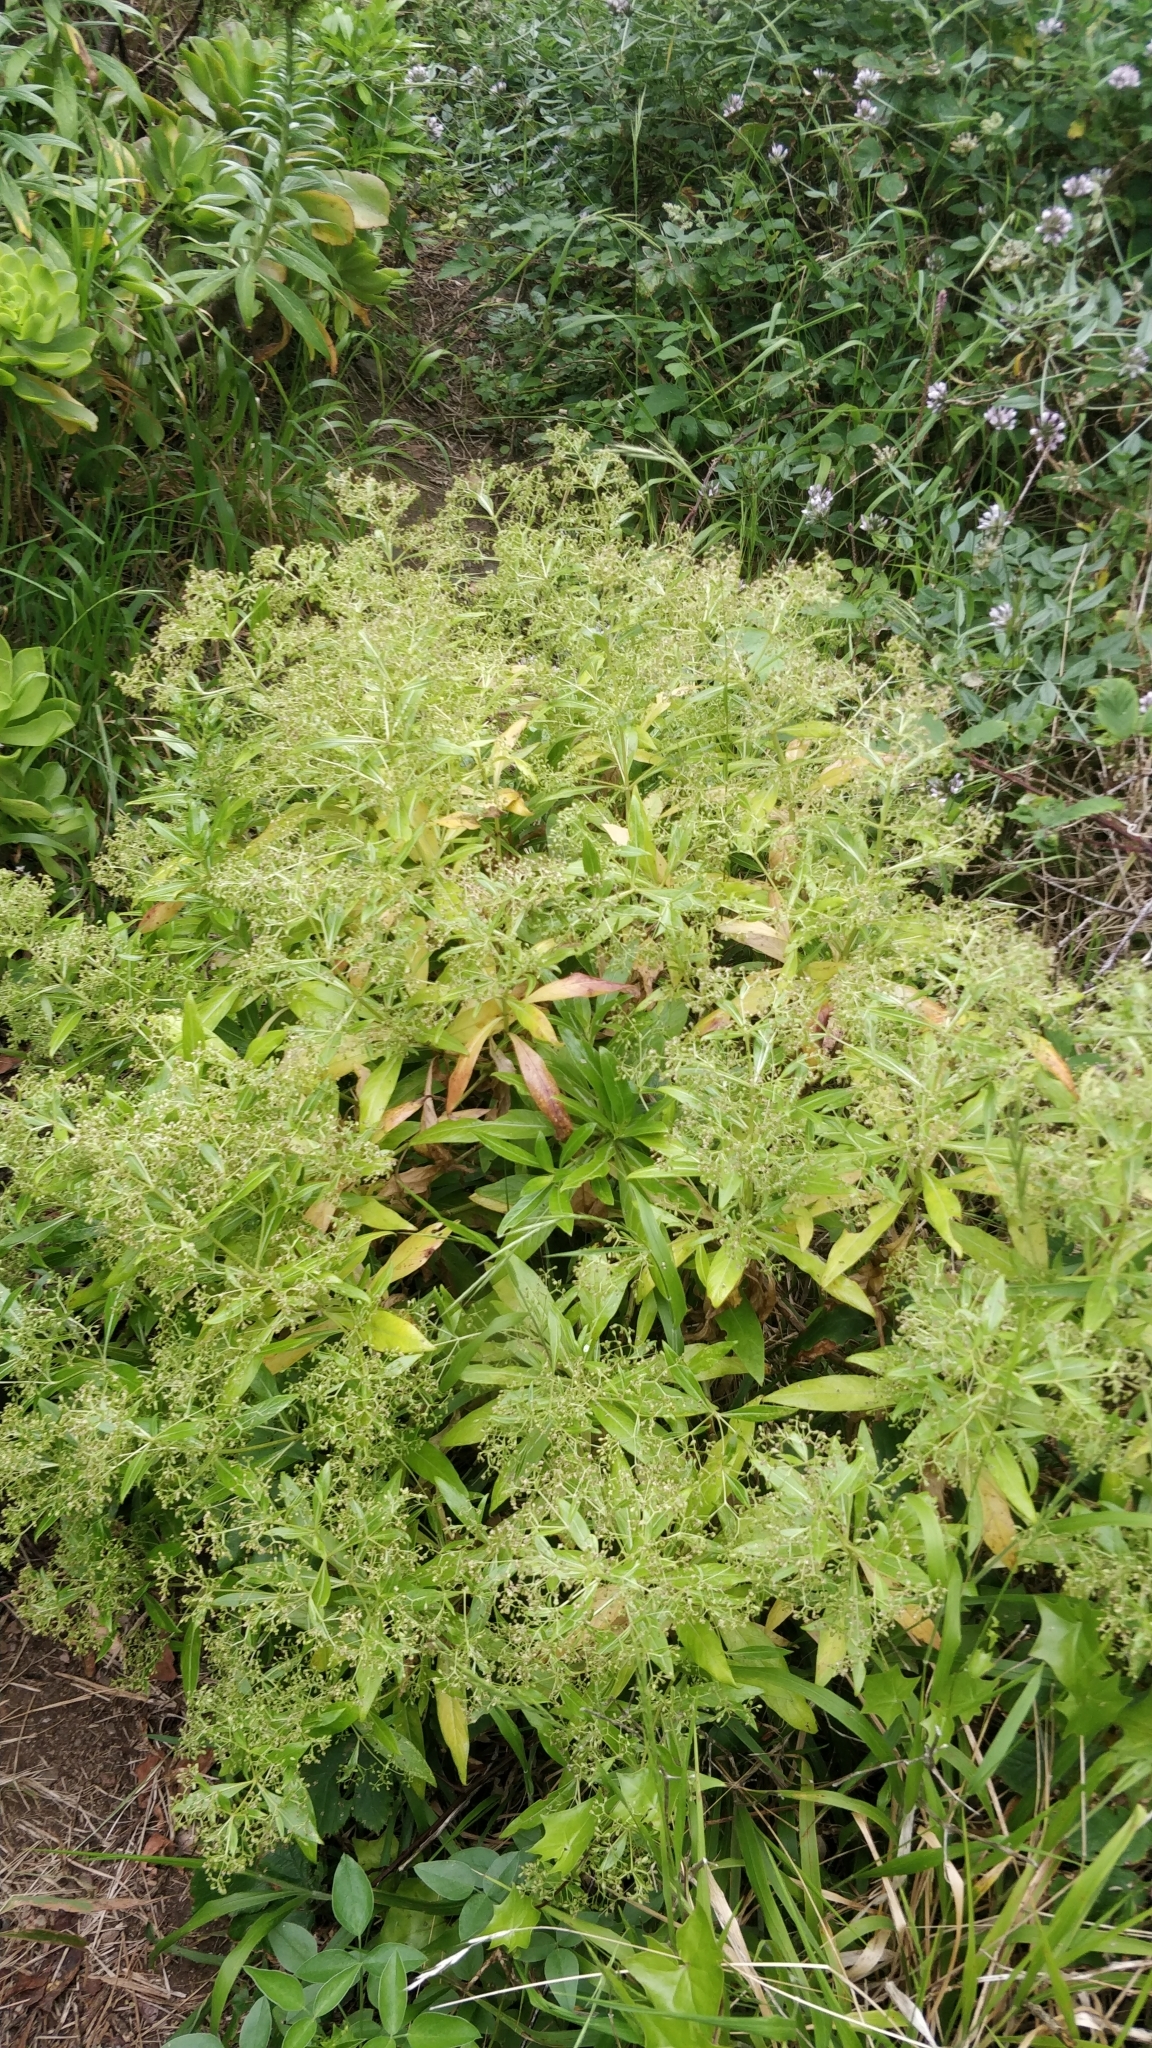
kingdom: Plantae
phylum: Tracheophyta
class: Magnoliopsida
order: Gentianales
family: Rubiaceae
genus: Phyllis
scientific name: Phyllis nobla
